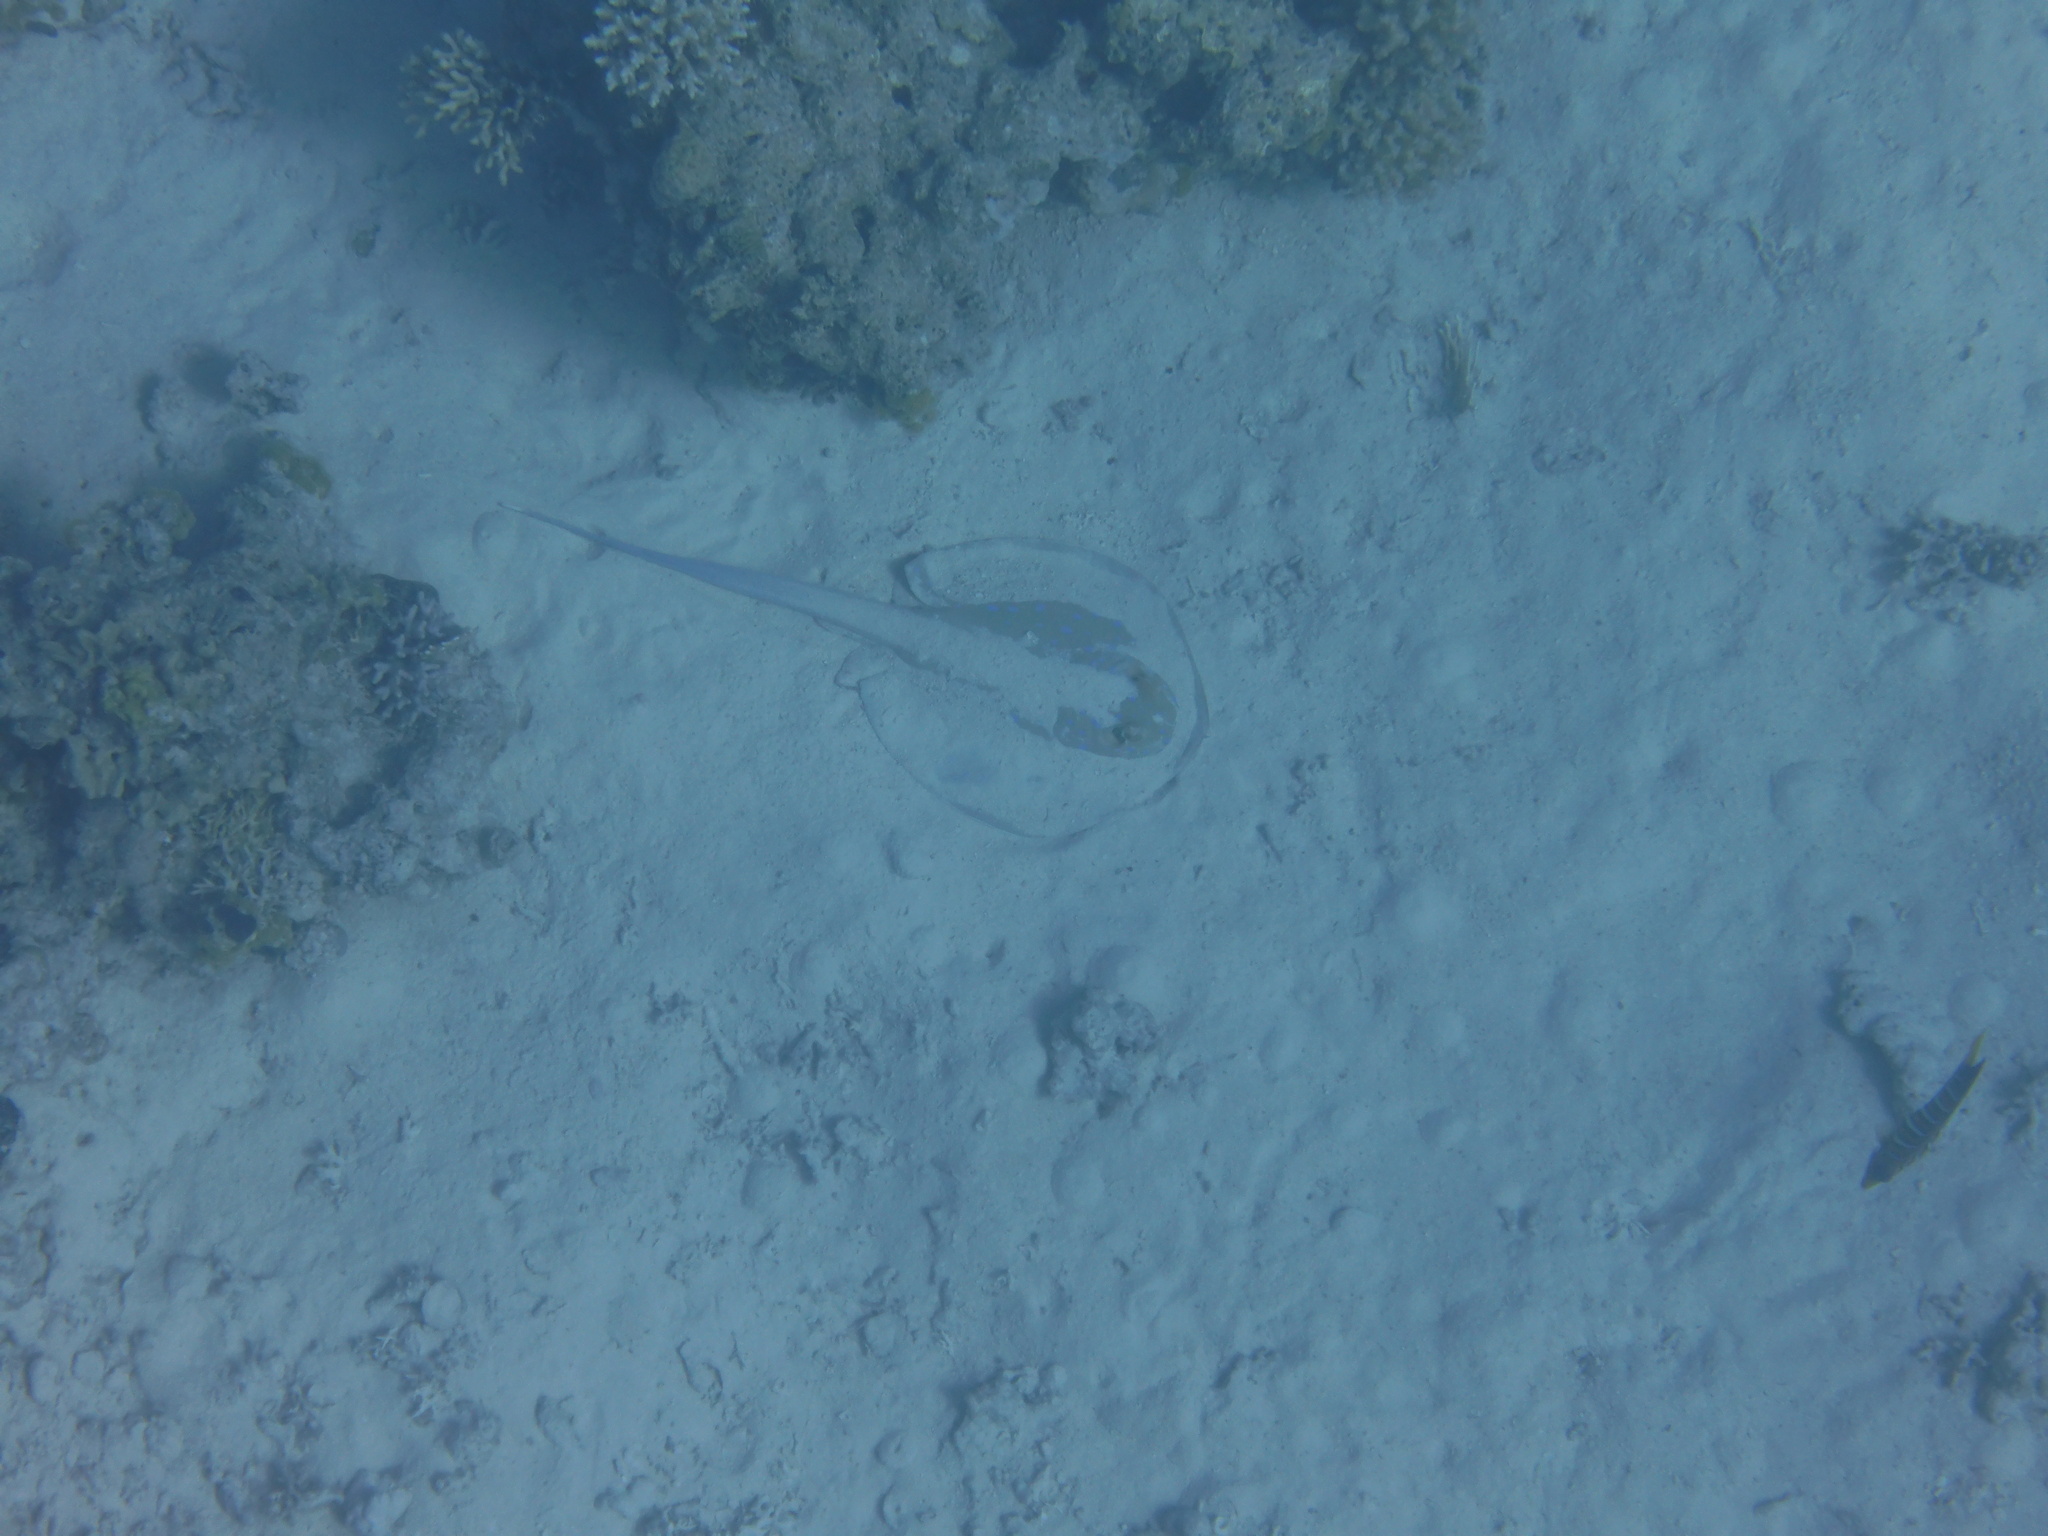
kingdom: Animalia
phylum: Chordata
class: Elasmobranchii
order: Myliobatiformes
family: Dasyatidae
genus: Taeniura
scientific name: Taeniura lymma
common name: Bluespotted ribbontail ray
